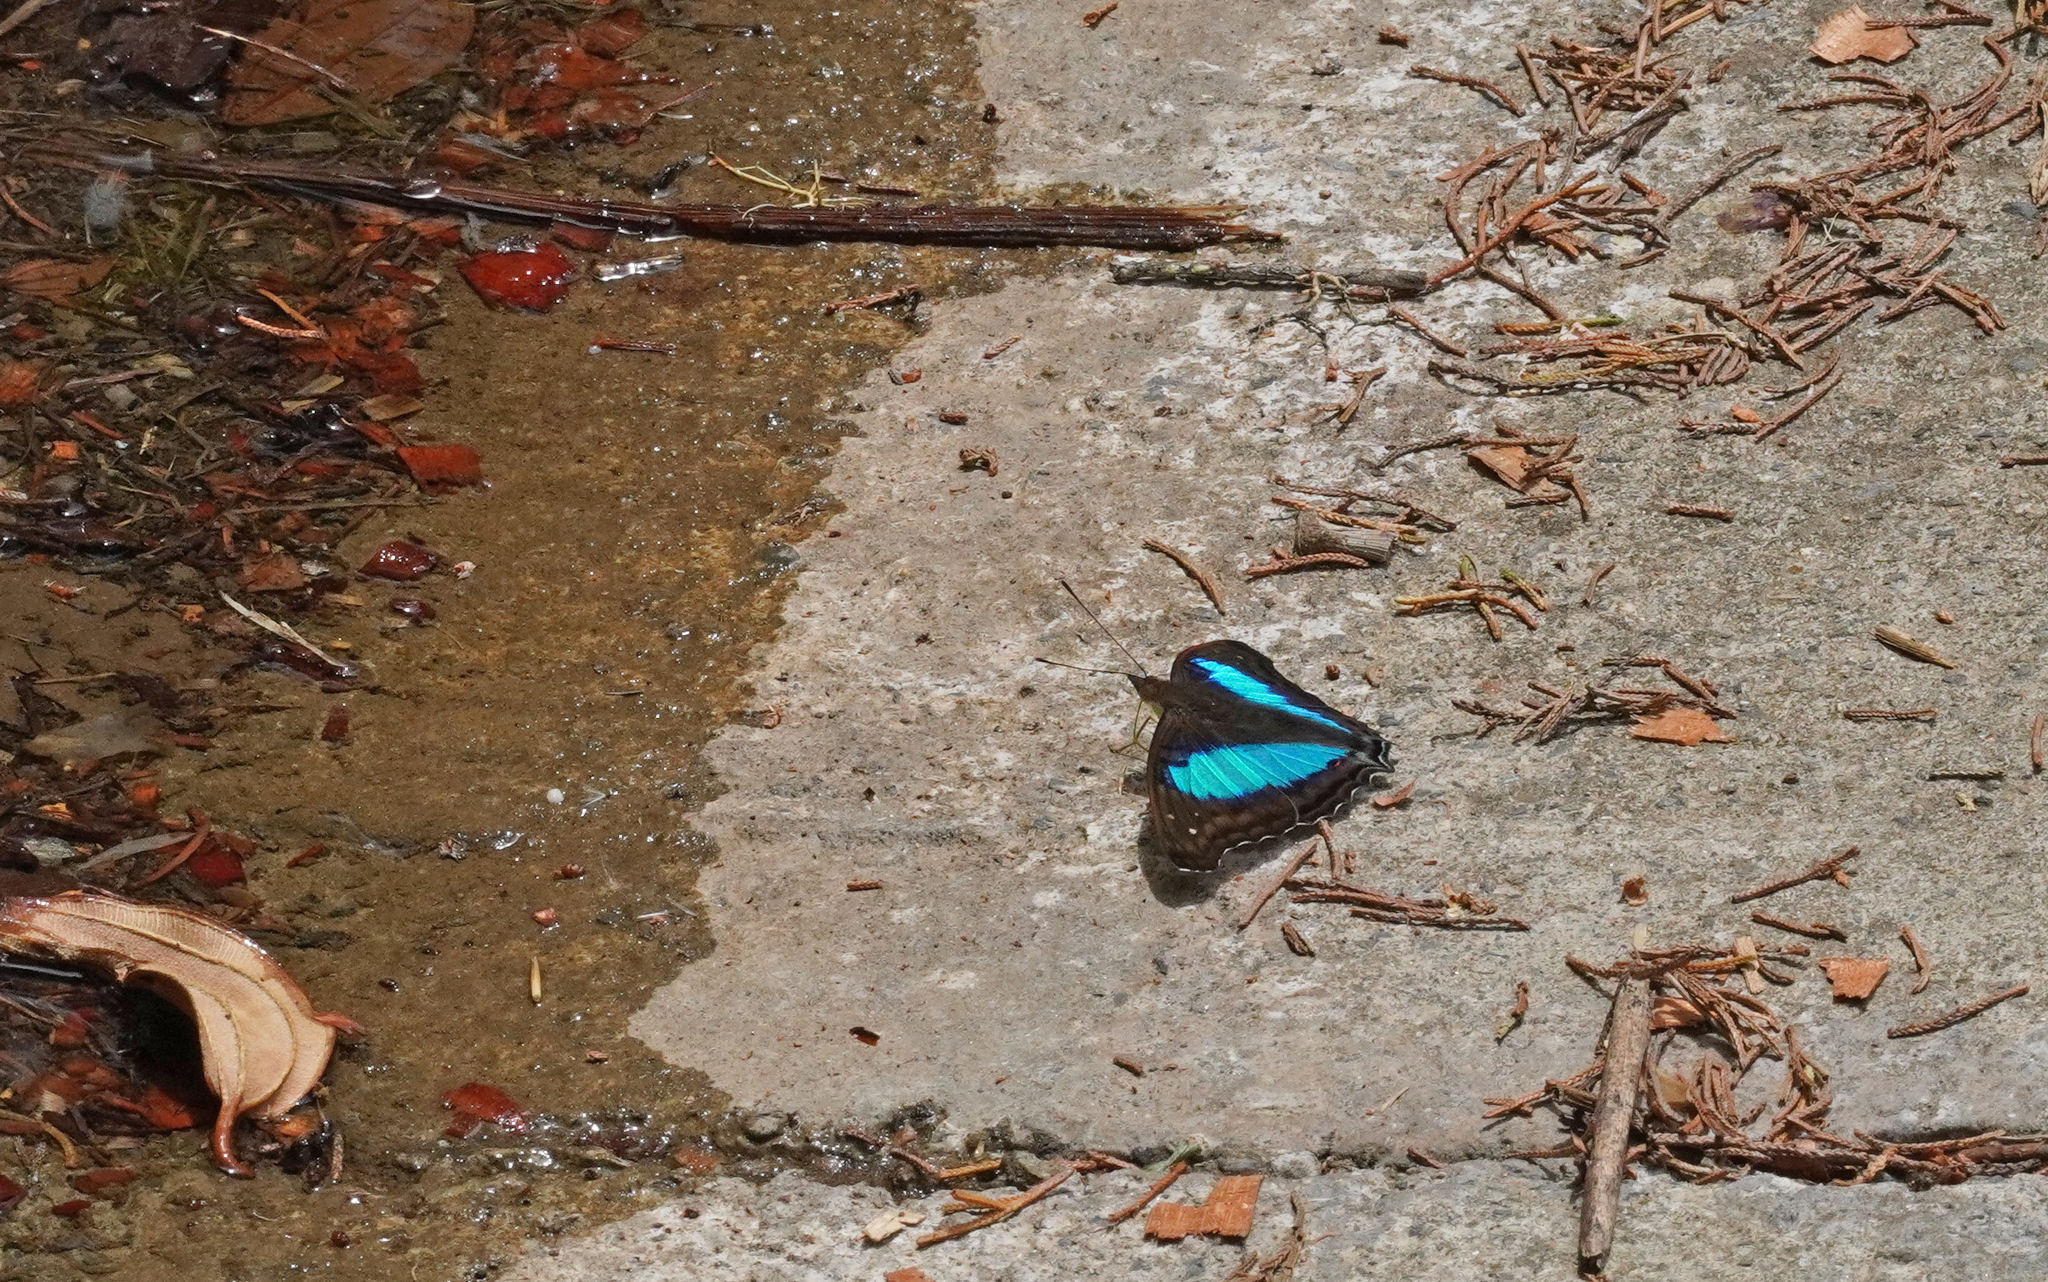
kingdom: Animalia
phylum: Arthropoda
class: Insecta
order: Lepidoptera
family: Nymphalidae
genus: Doxocopa
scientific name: Doxocopa laurentia
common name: Turquoise emperor
